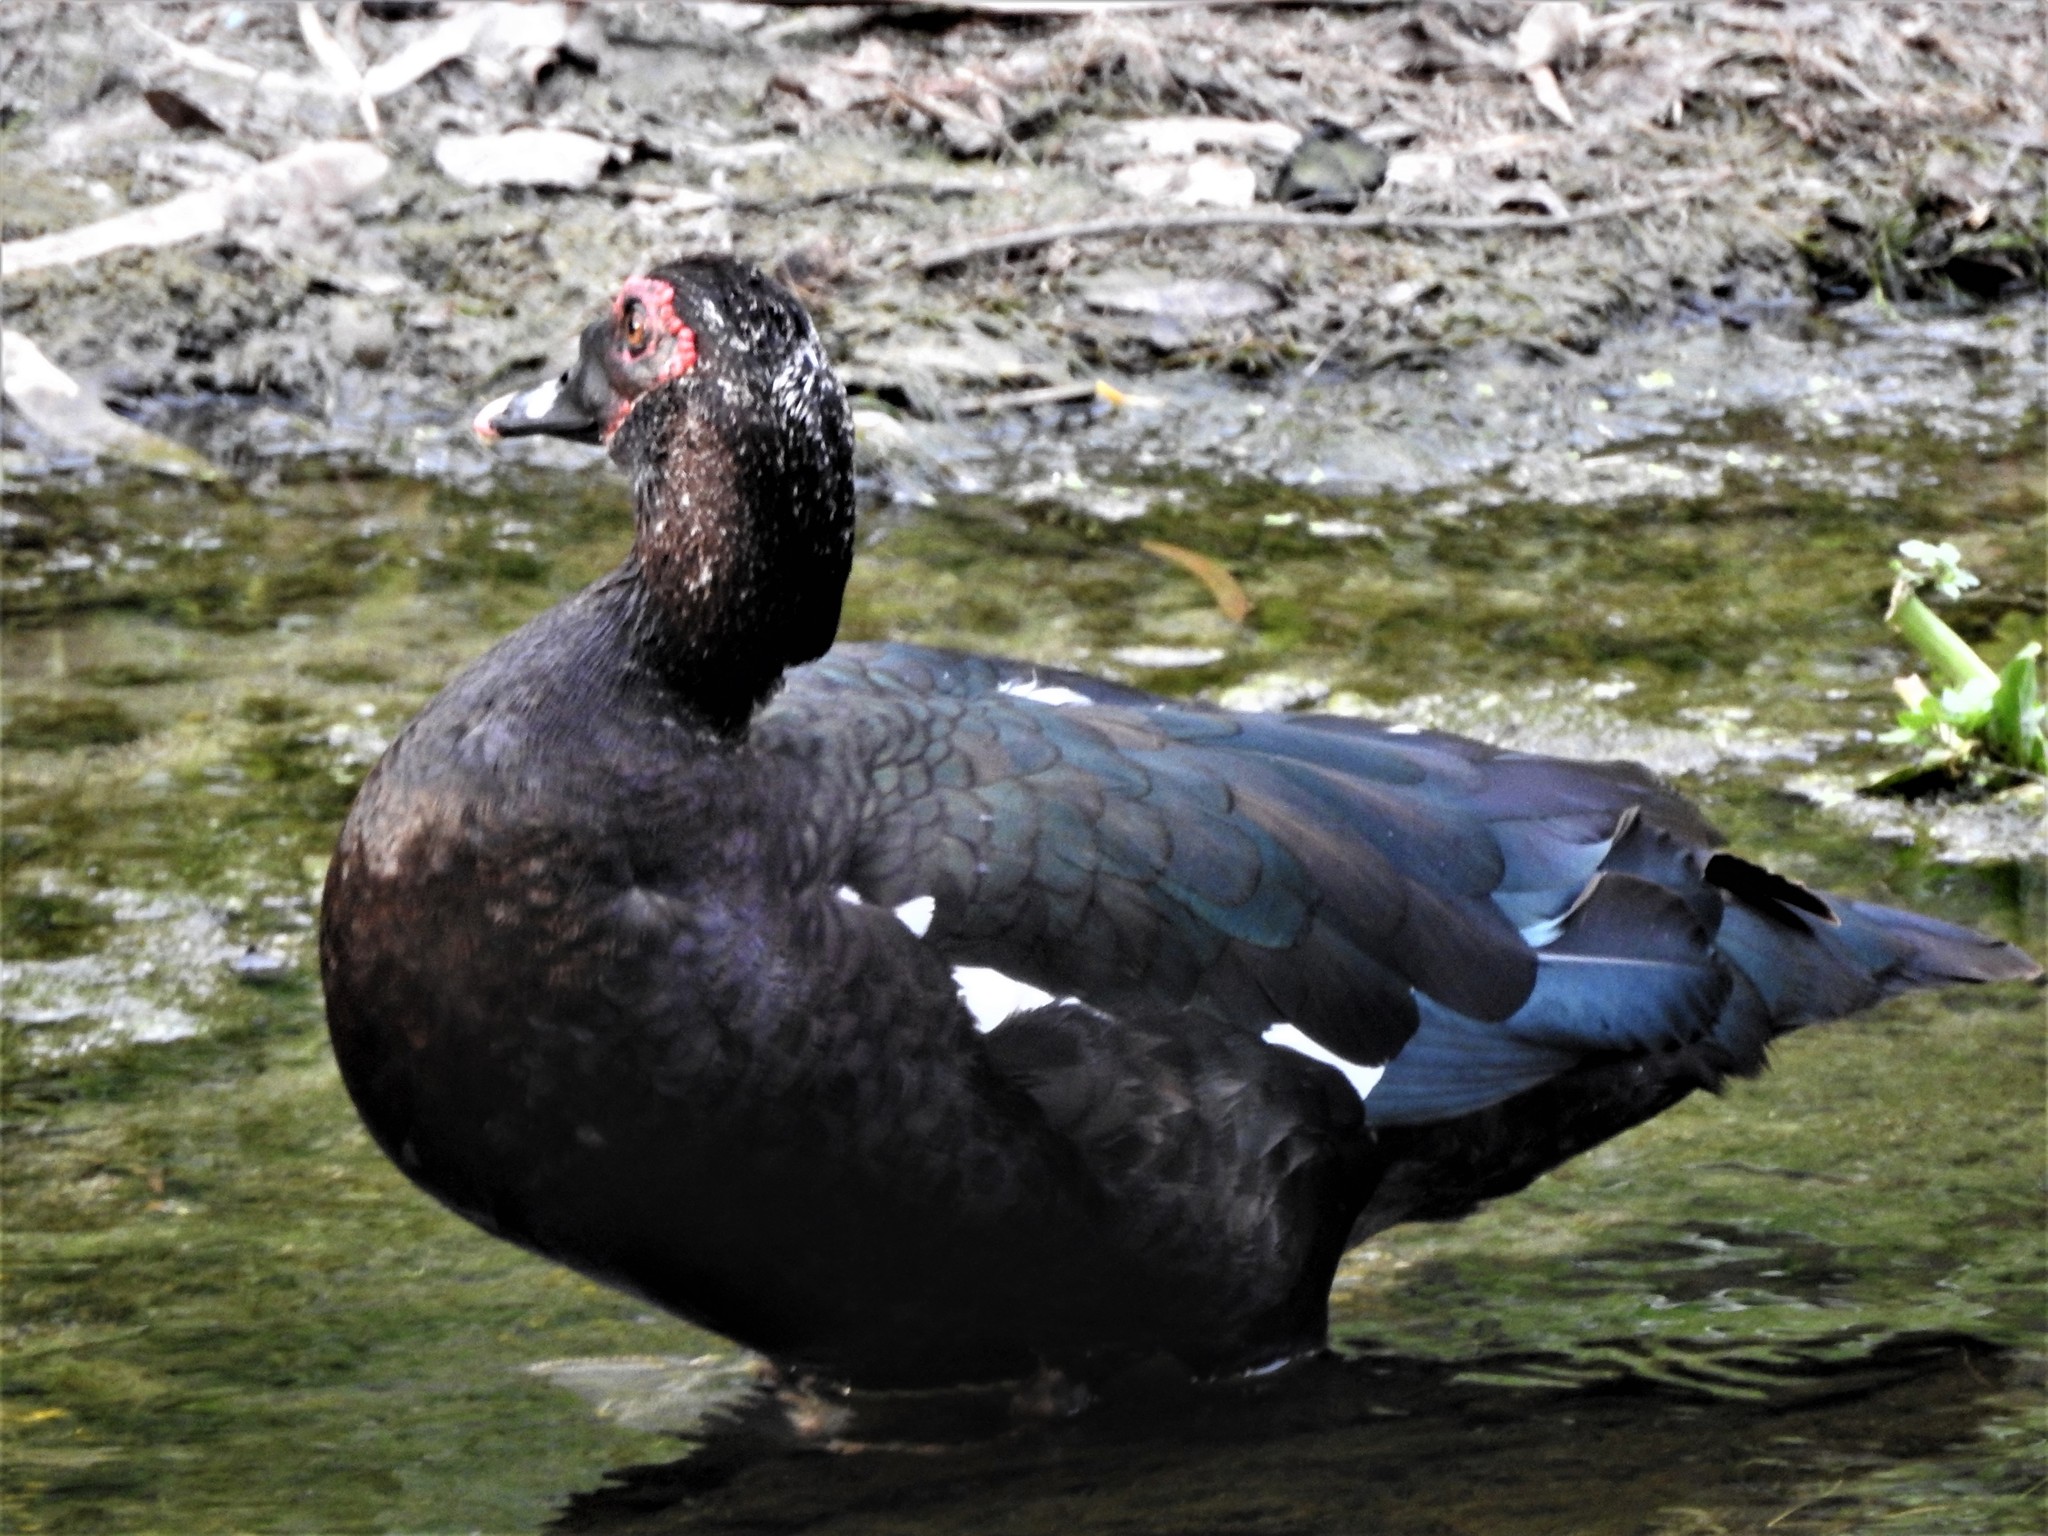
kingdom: Animalia
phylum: Chordata
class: Aves
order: Anseriformes
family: Anatidae
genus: Cairina
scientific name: Cairina moschata
